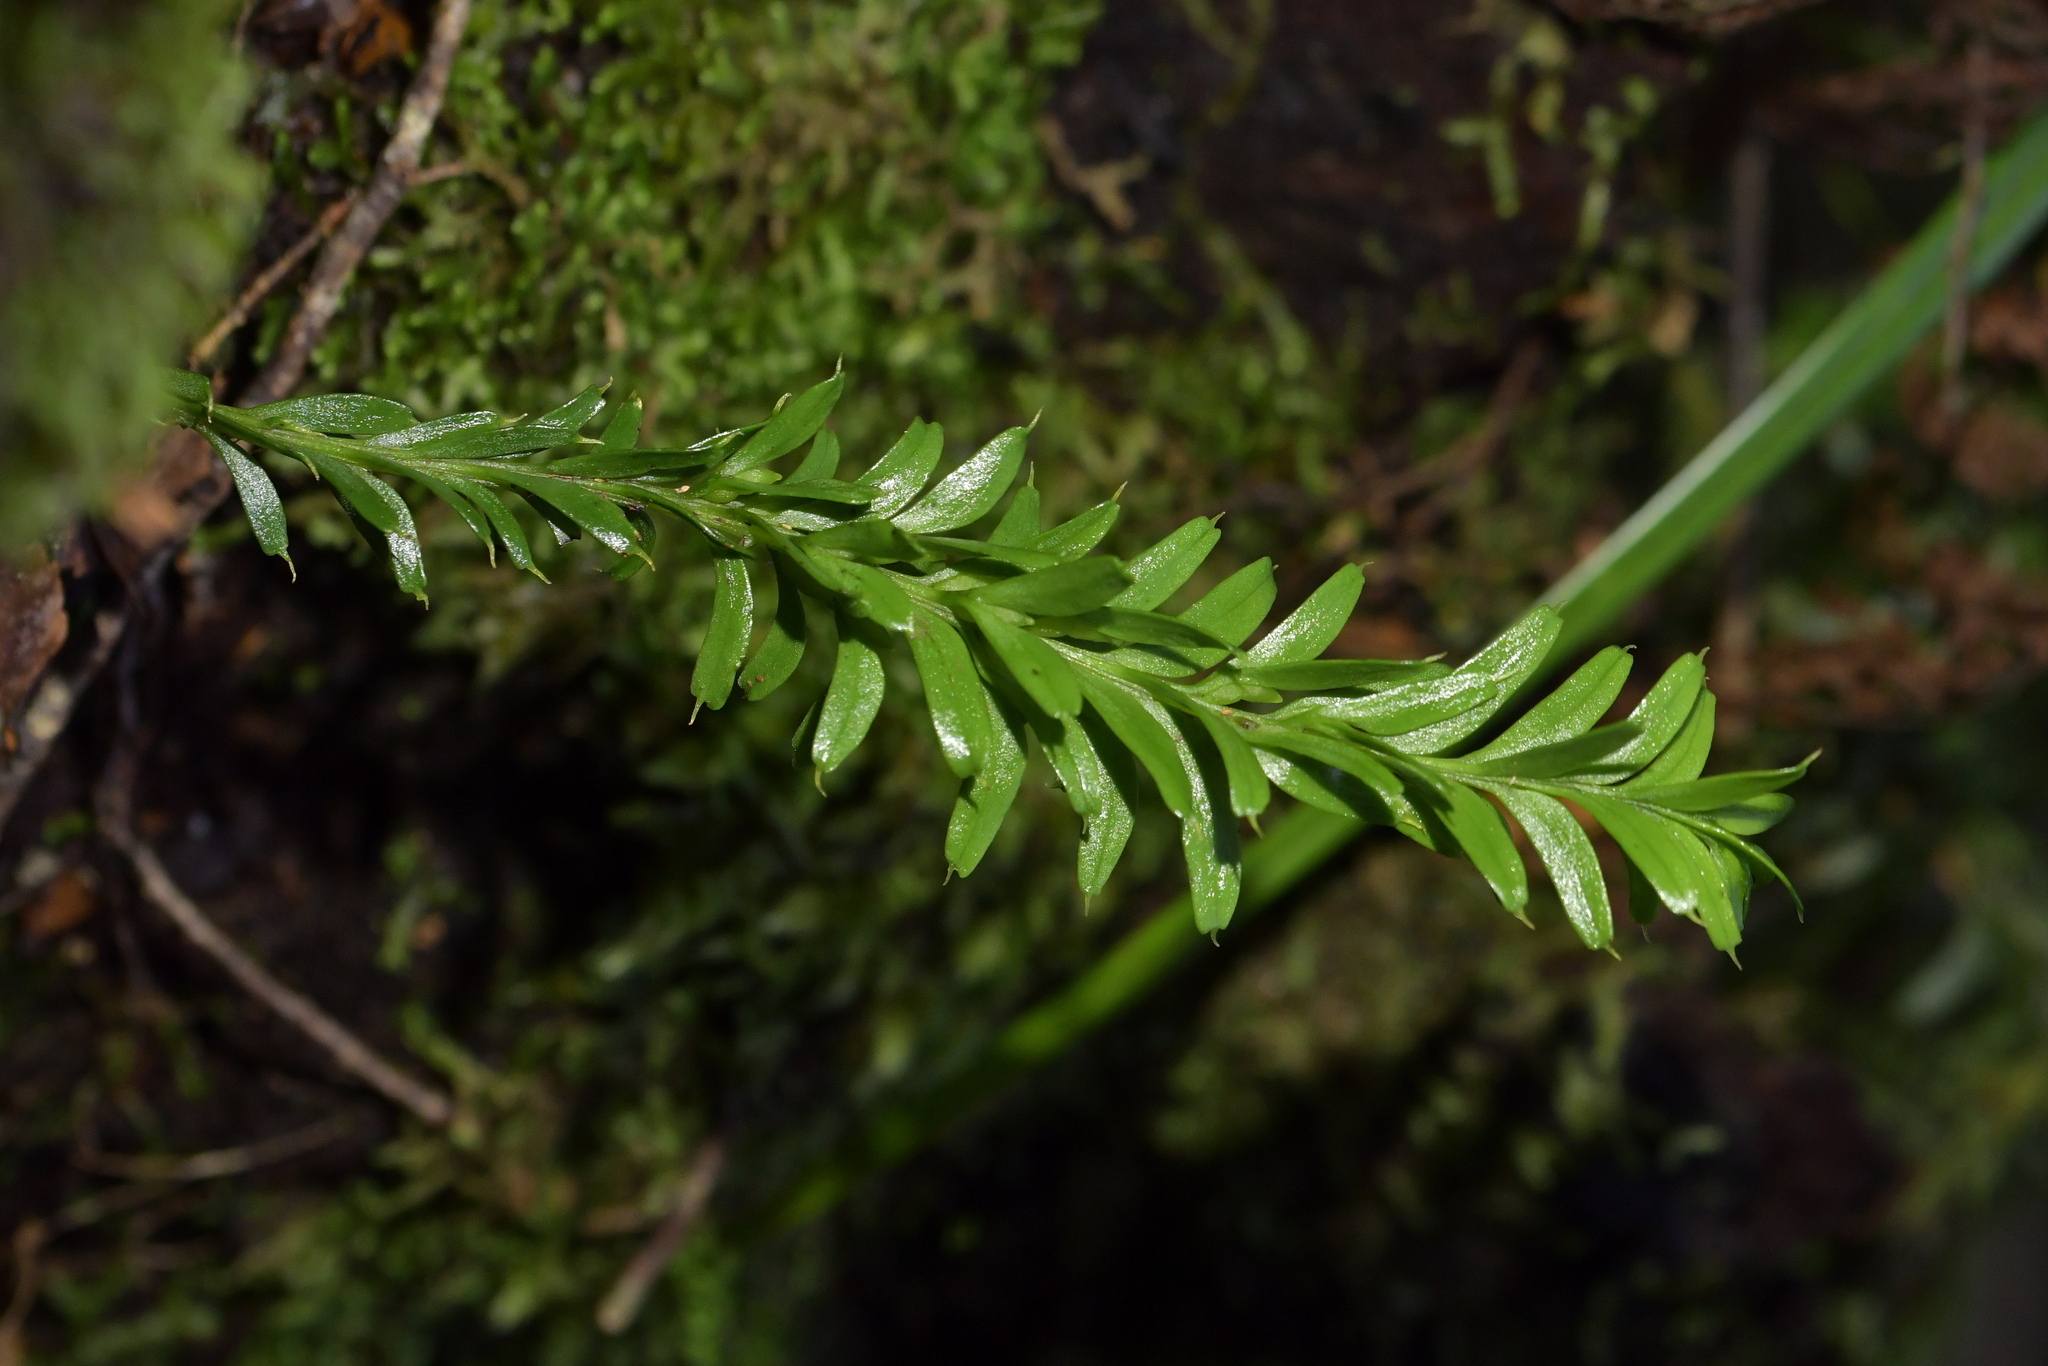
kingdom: Plantae
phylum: Tracheophyta
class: Polypodiopsida
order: Psilotales
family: Psilotaceae
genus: Tmesipteris
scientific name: Tmesipteris tannensis
